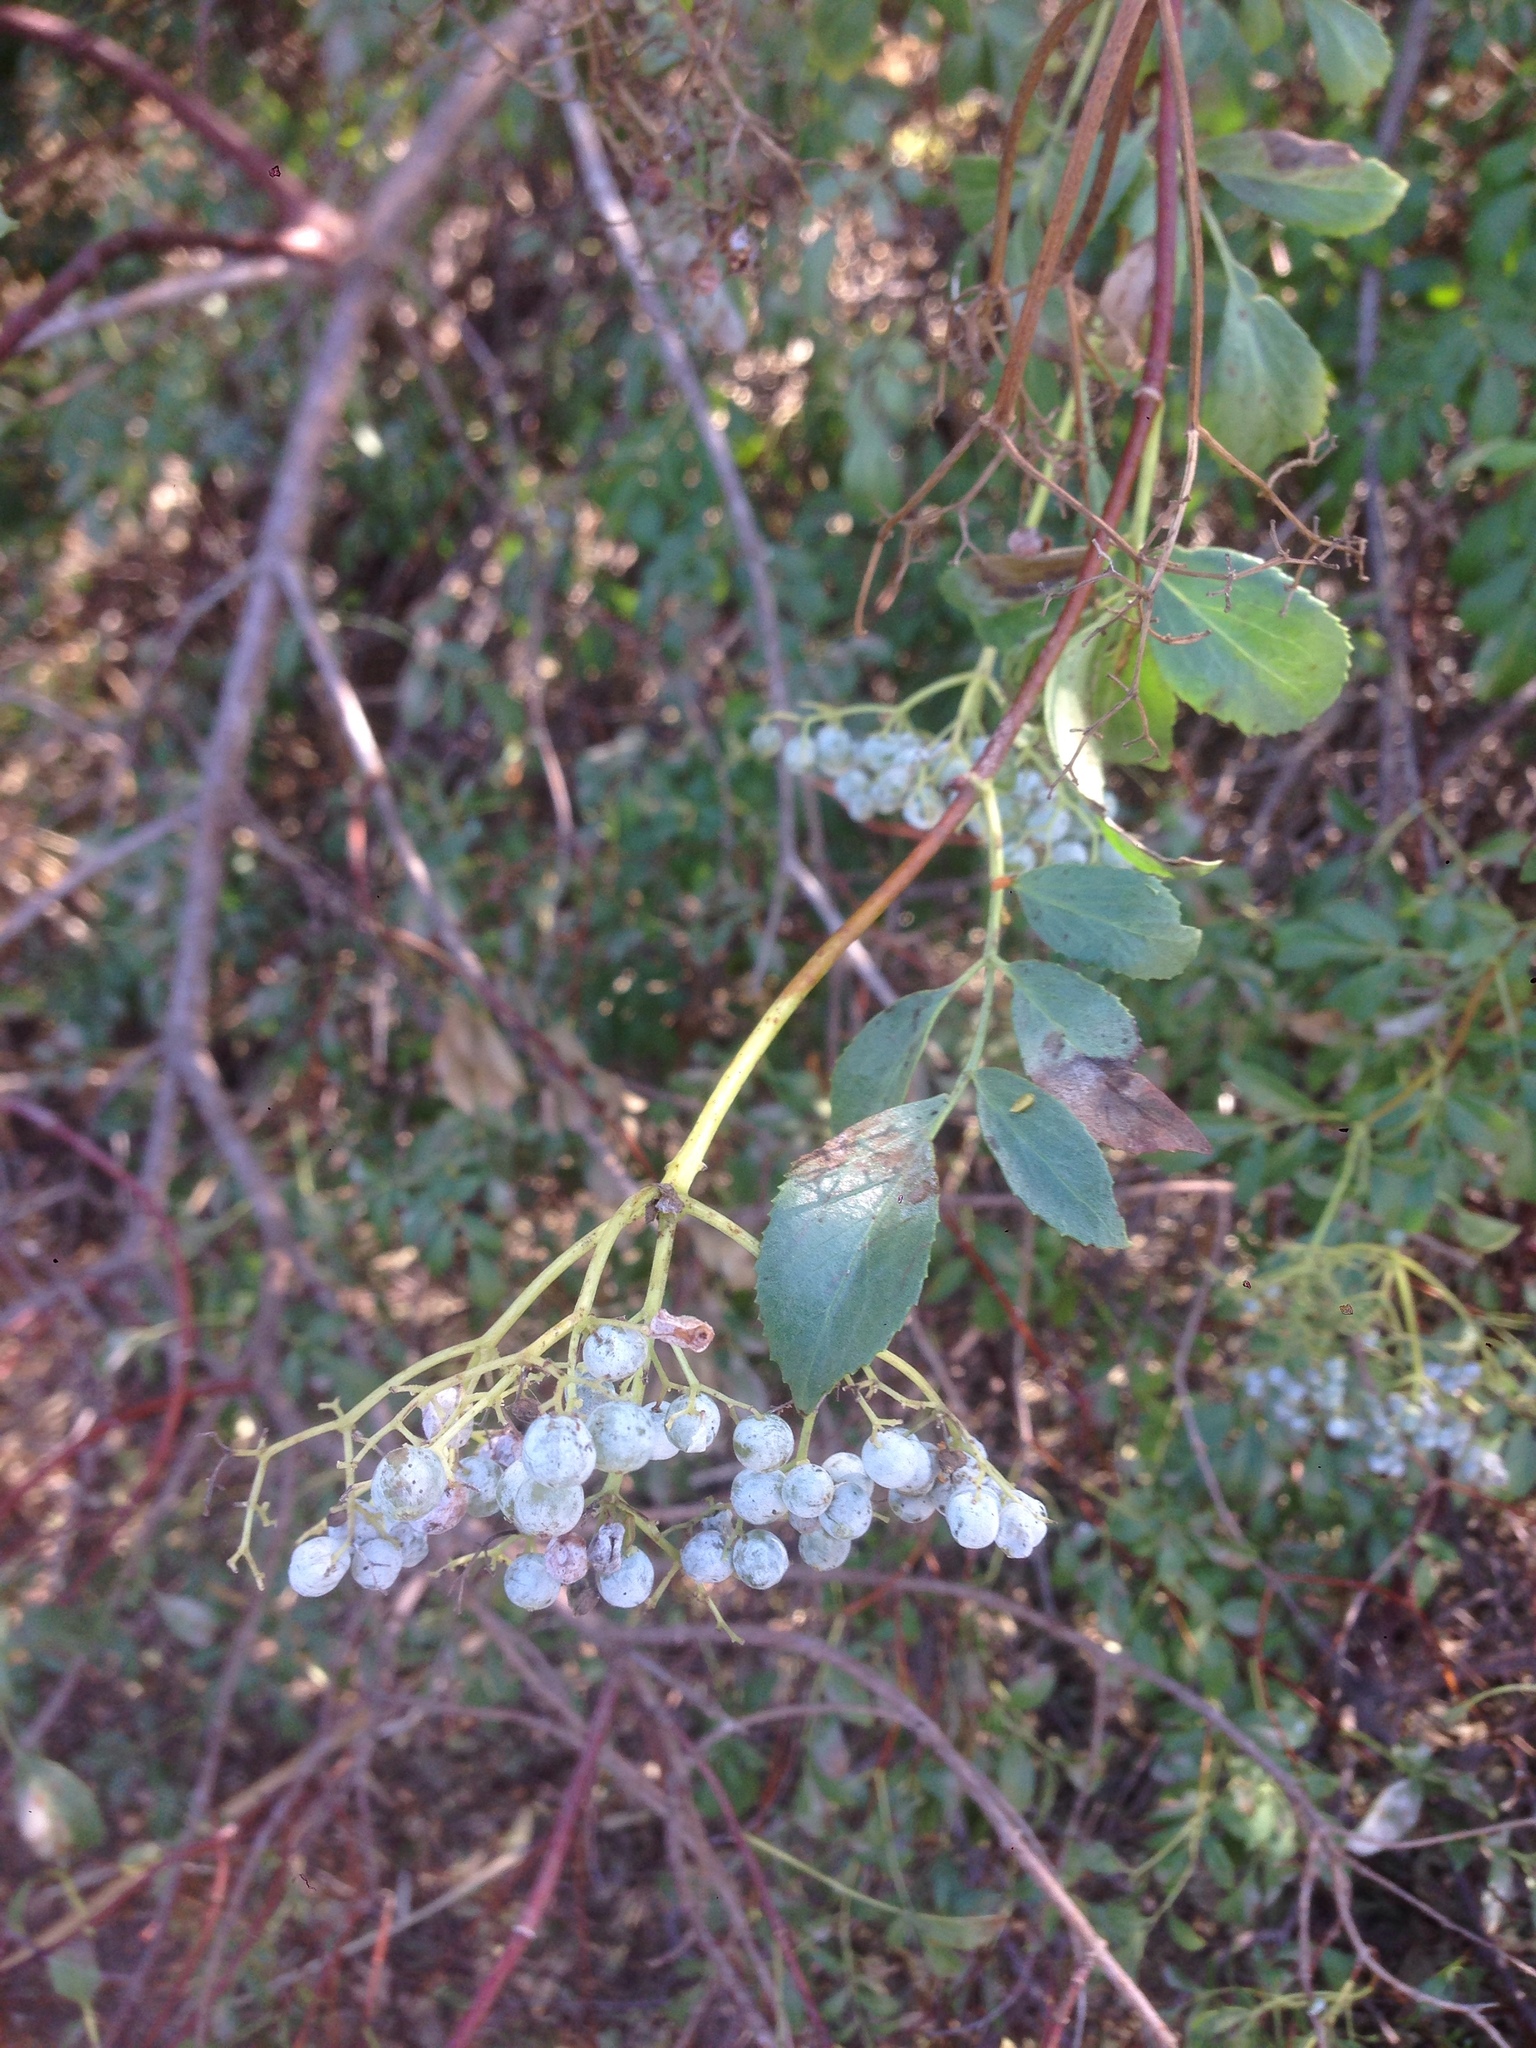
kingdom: Plantae
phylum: Tracheophyta
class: Magnoliopsida
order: Dipsacales
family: Viburnaceae
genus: Sambucus
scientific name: Sambucus cerulea
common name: Blue elder
